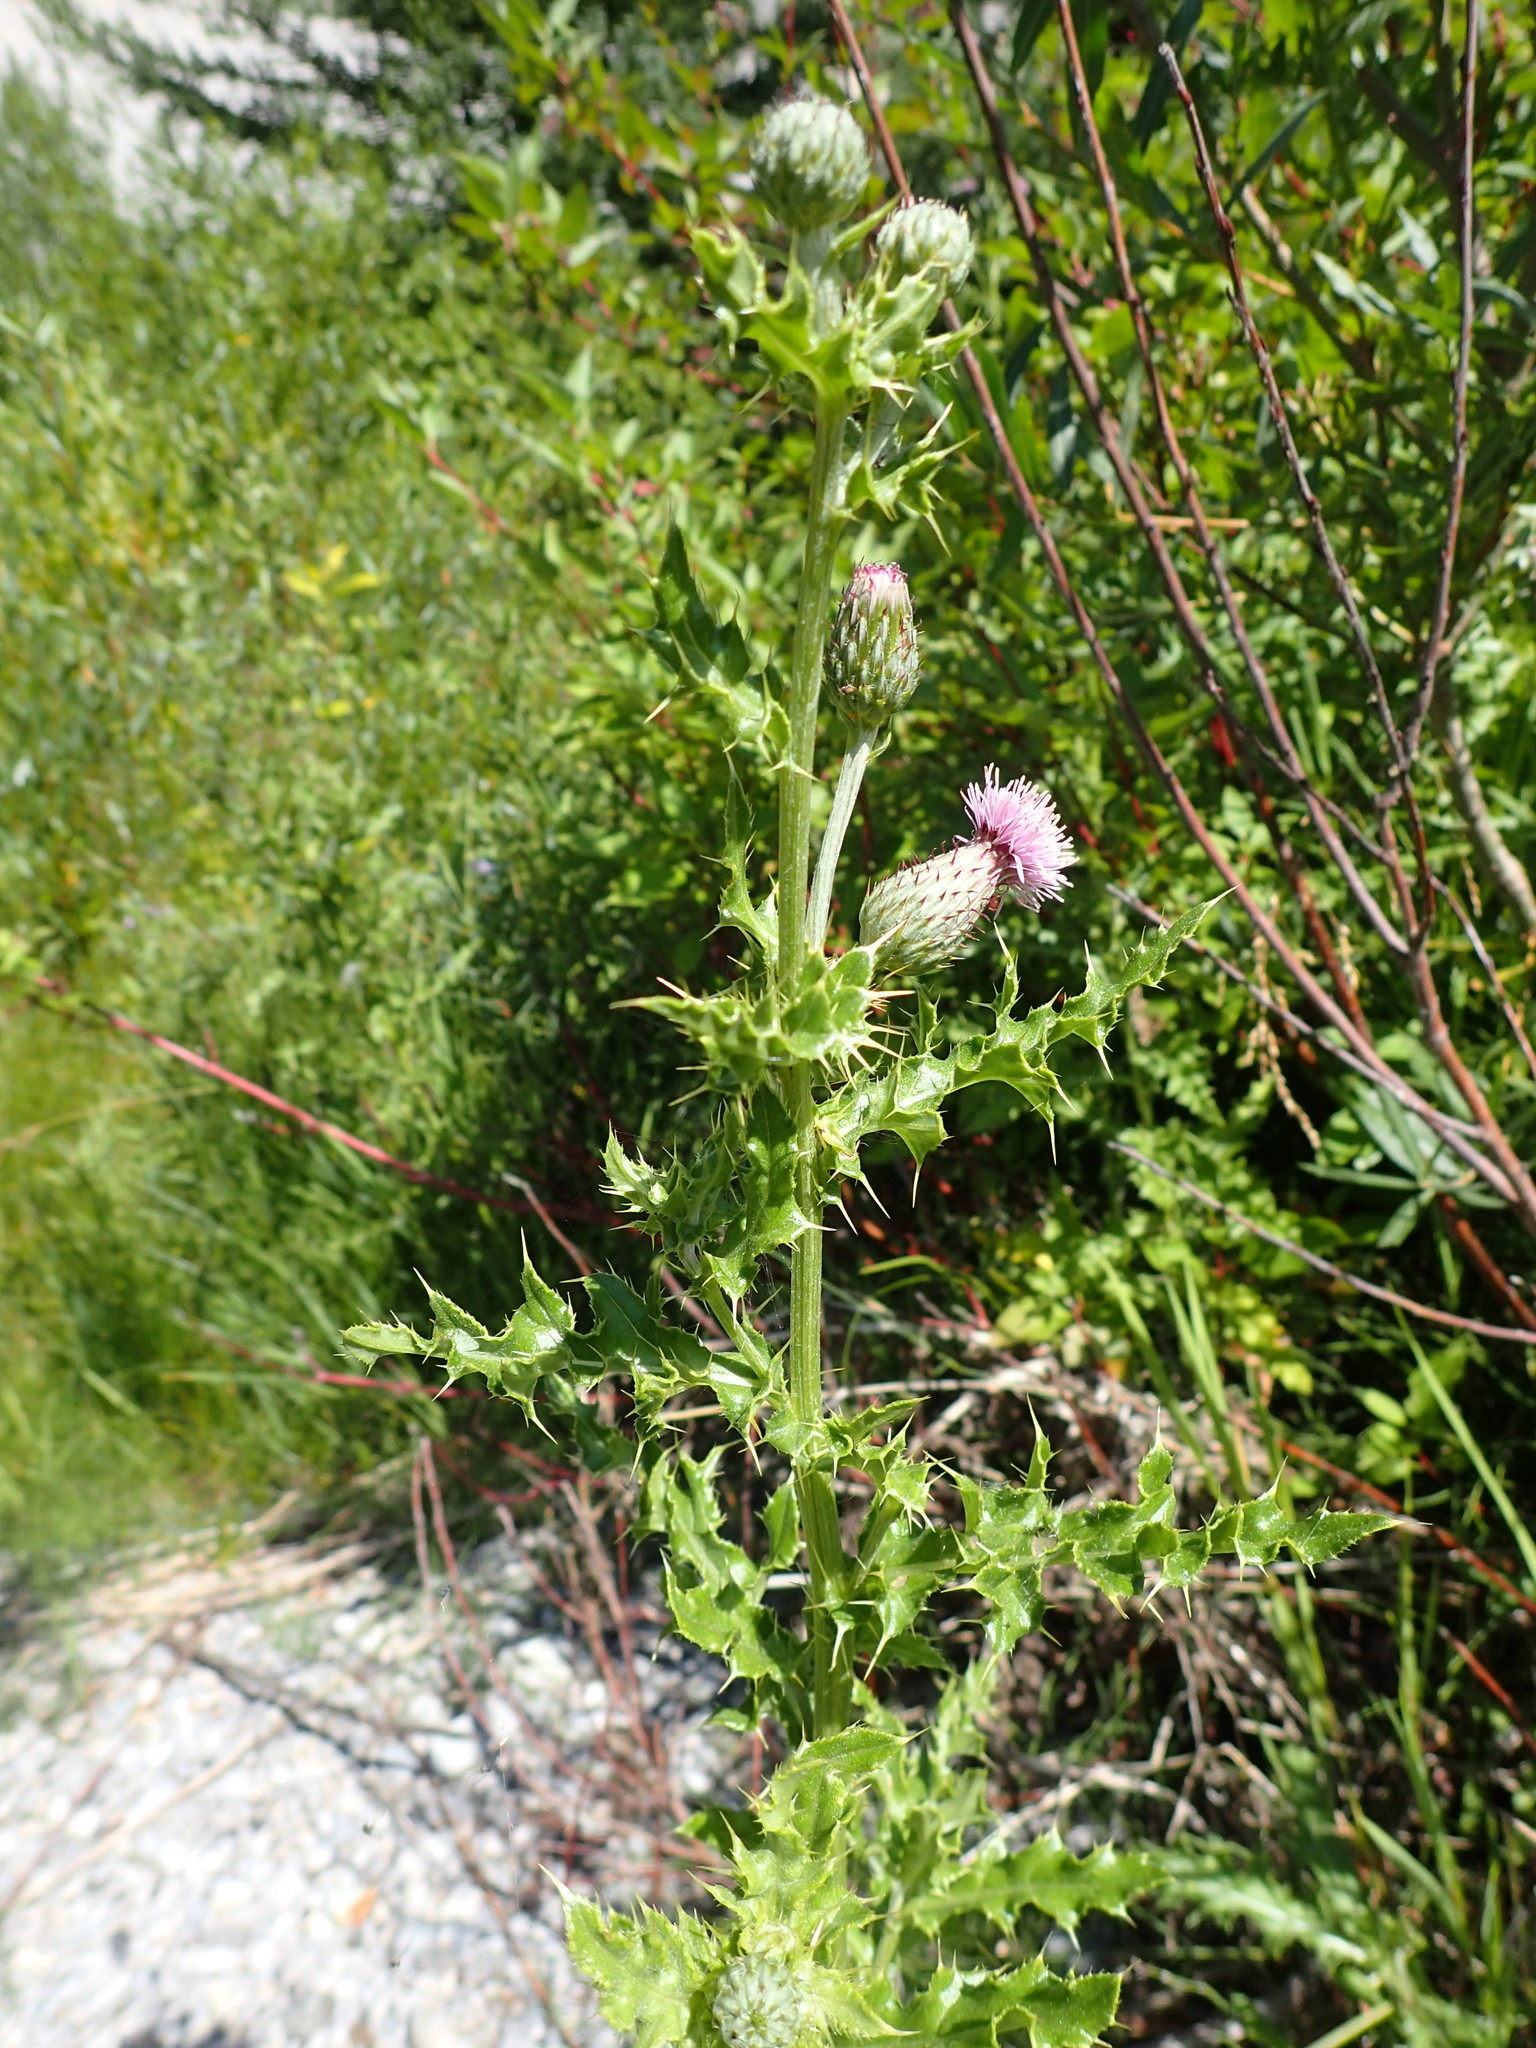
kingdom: Plantae
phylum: Tracheophyta
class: Magnoliopsida
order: Asterales
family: Asteraceae
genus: Cirsium
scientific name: Cirsium arvense
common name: Creeping thistle
